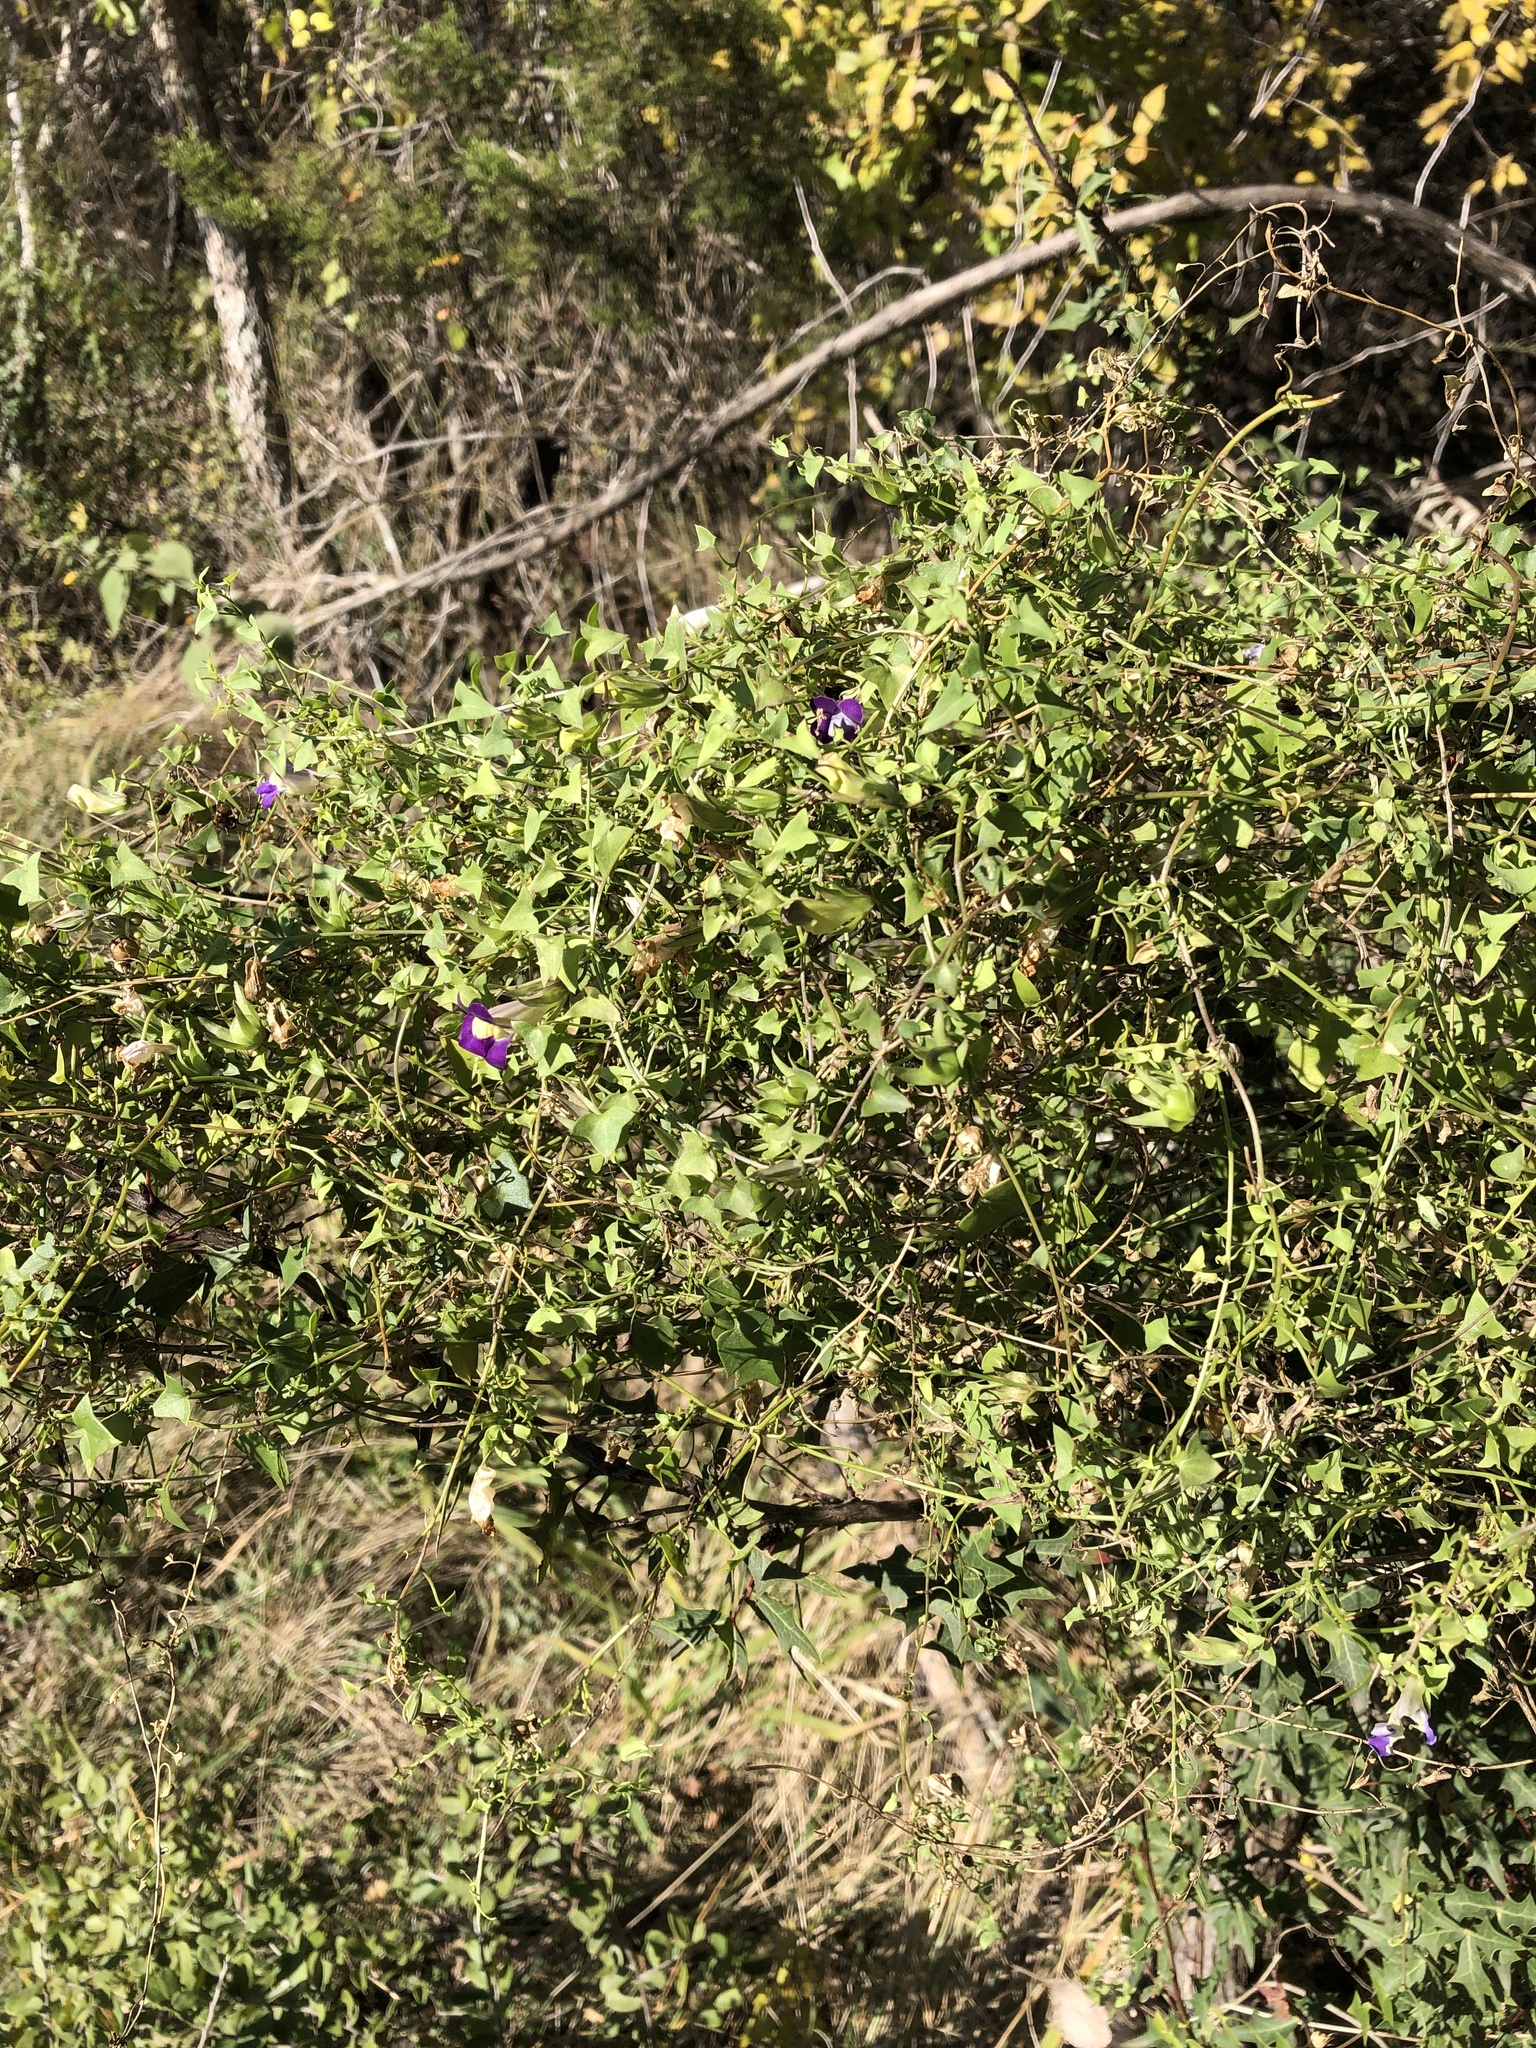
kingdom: Plantae
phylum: Tracheophyta
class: Magnoliopsida
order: Lamiales
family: Plantaginaceae
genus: Maurandella
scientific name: Maurandella antirrhiniflora
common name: Violet twining-snapdragon
